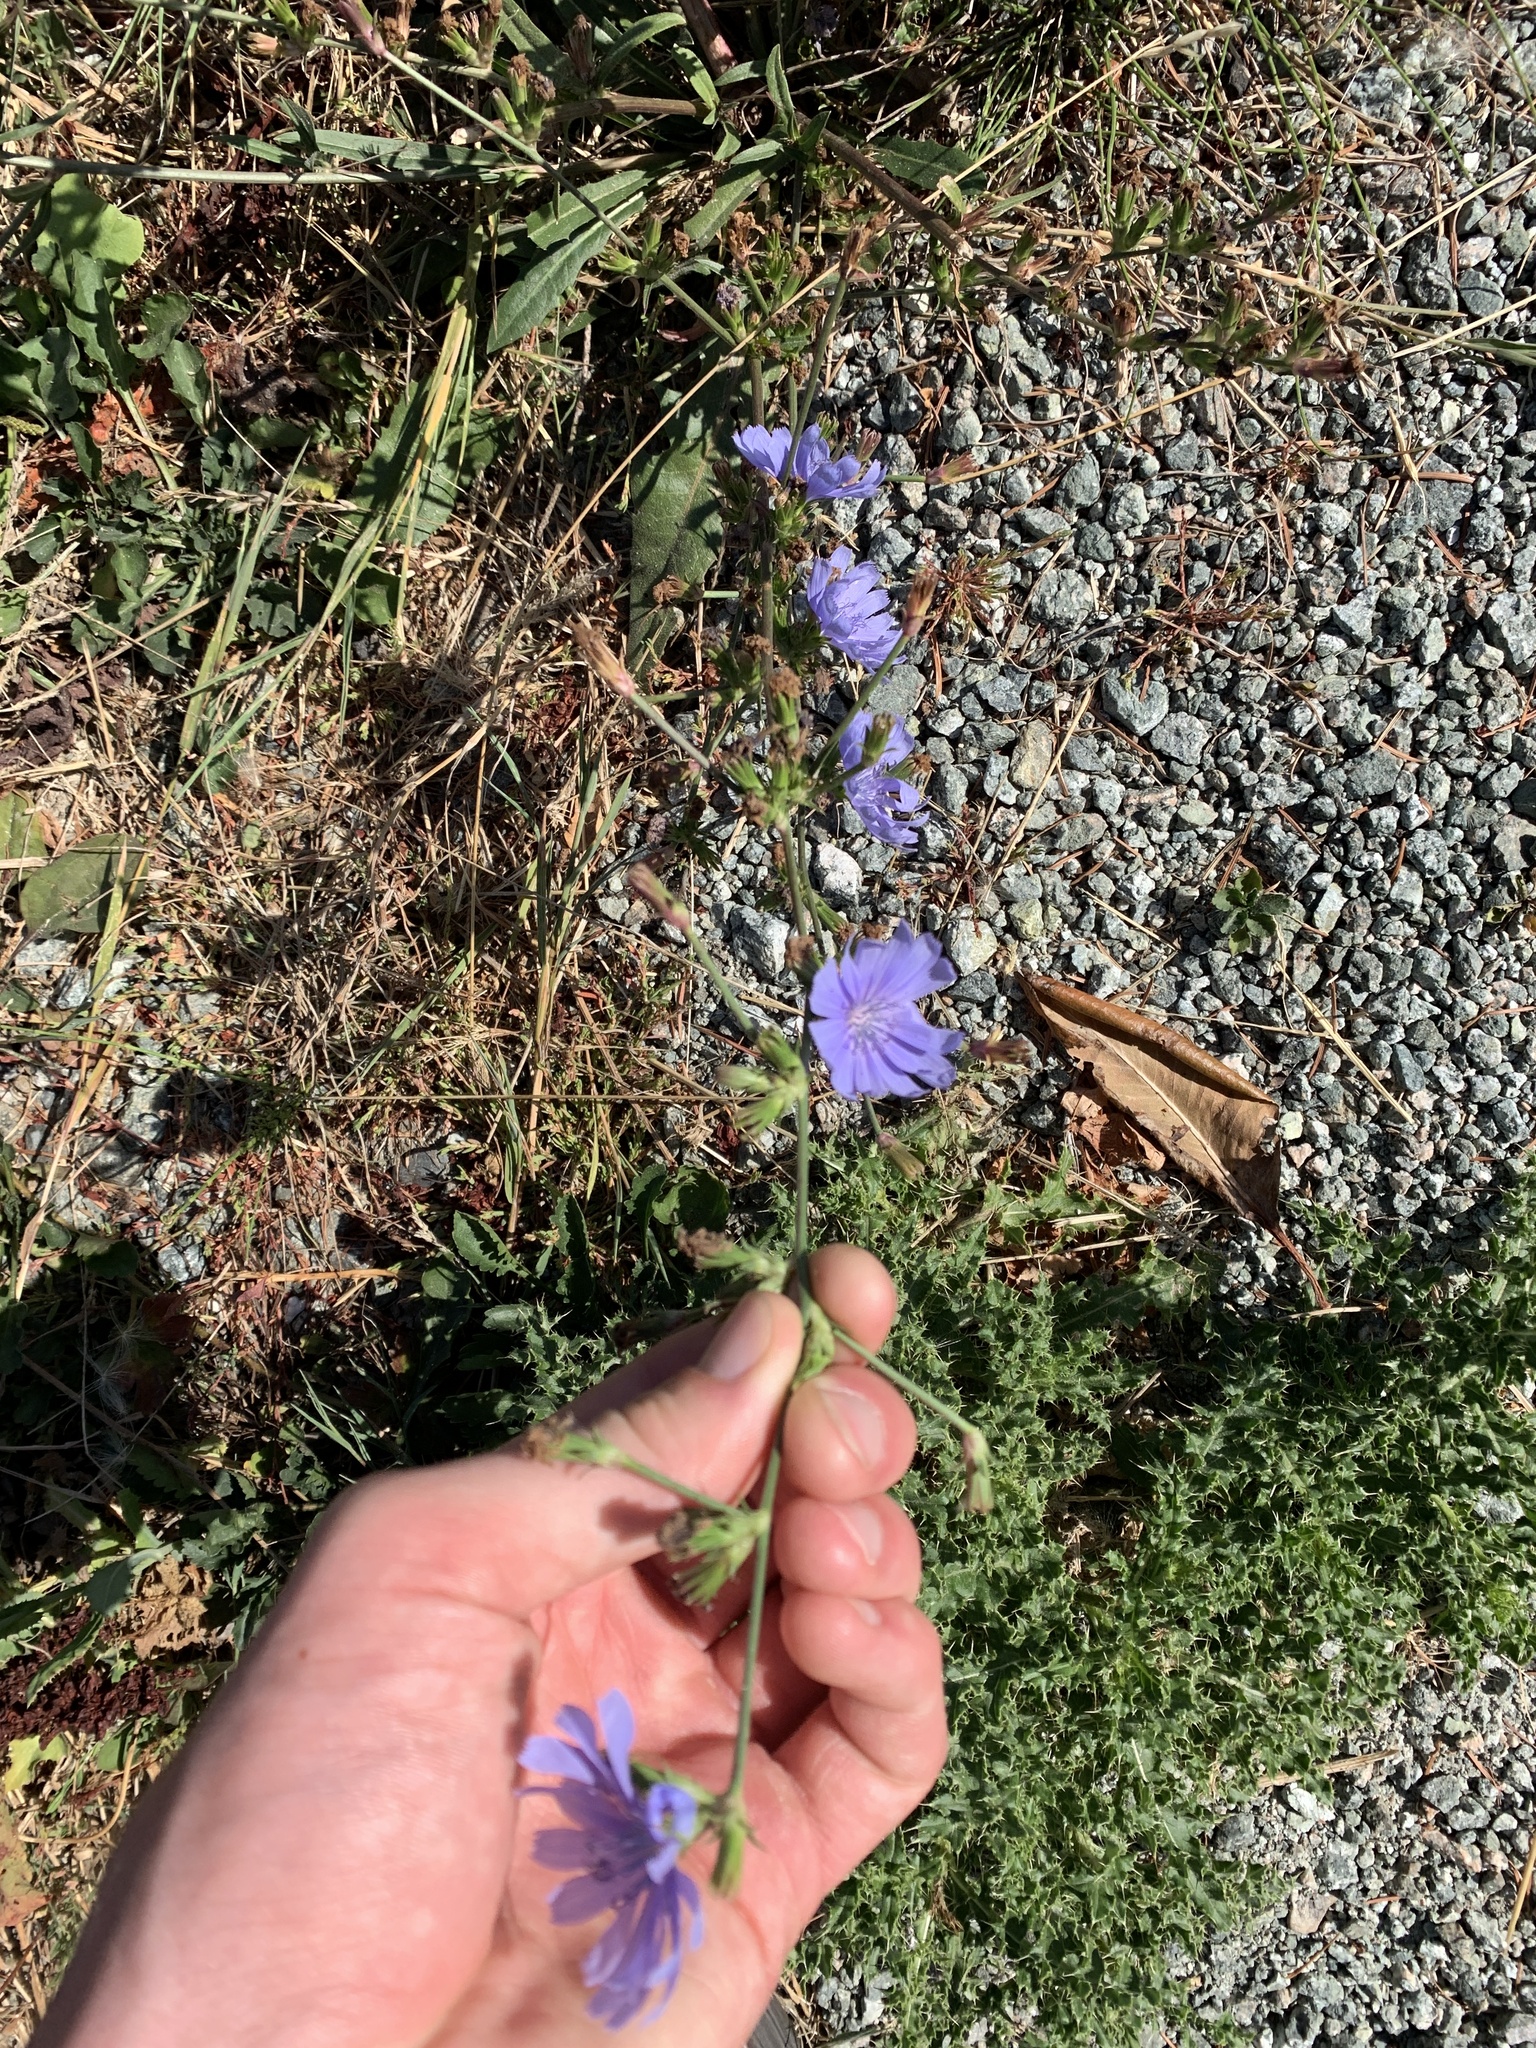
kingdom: Plantae
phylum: Tracheophyta
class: Magnoliopsida
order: Asterales
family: Asteraceae
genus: Cichorium
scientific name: Cichorium intybus
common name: Chicory
